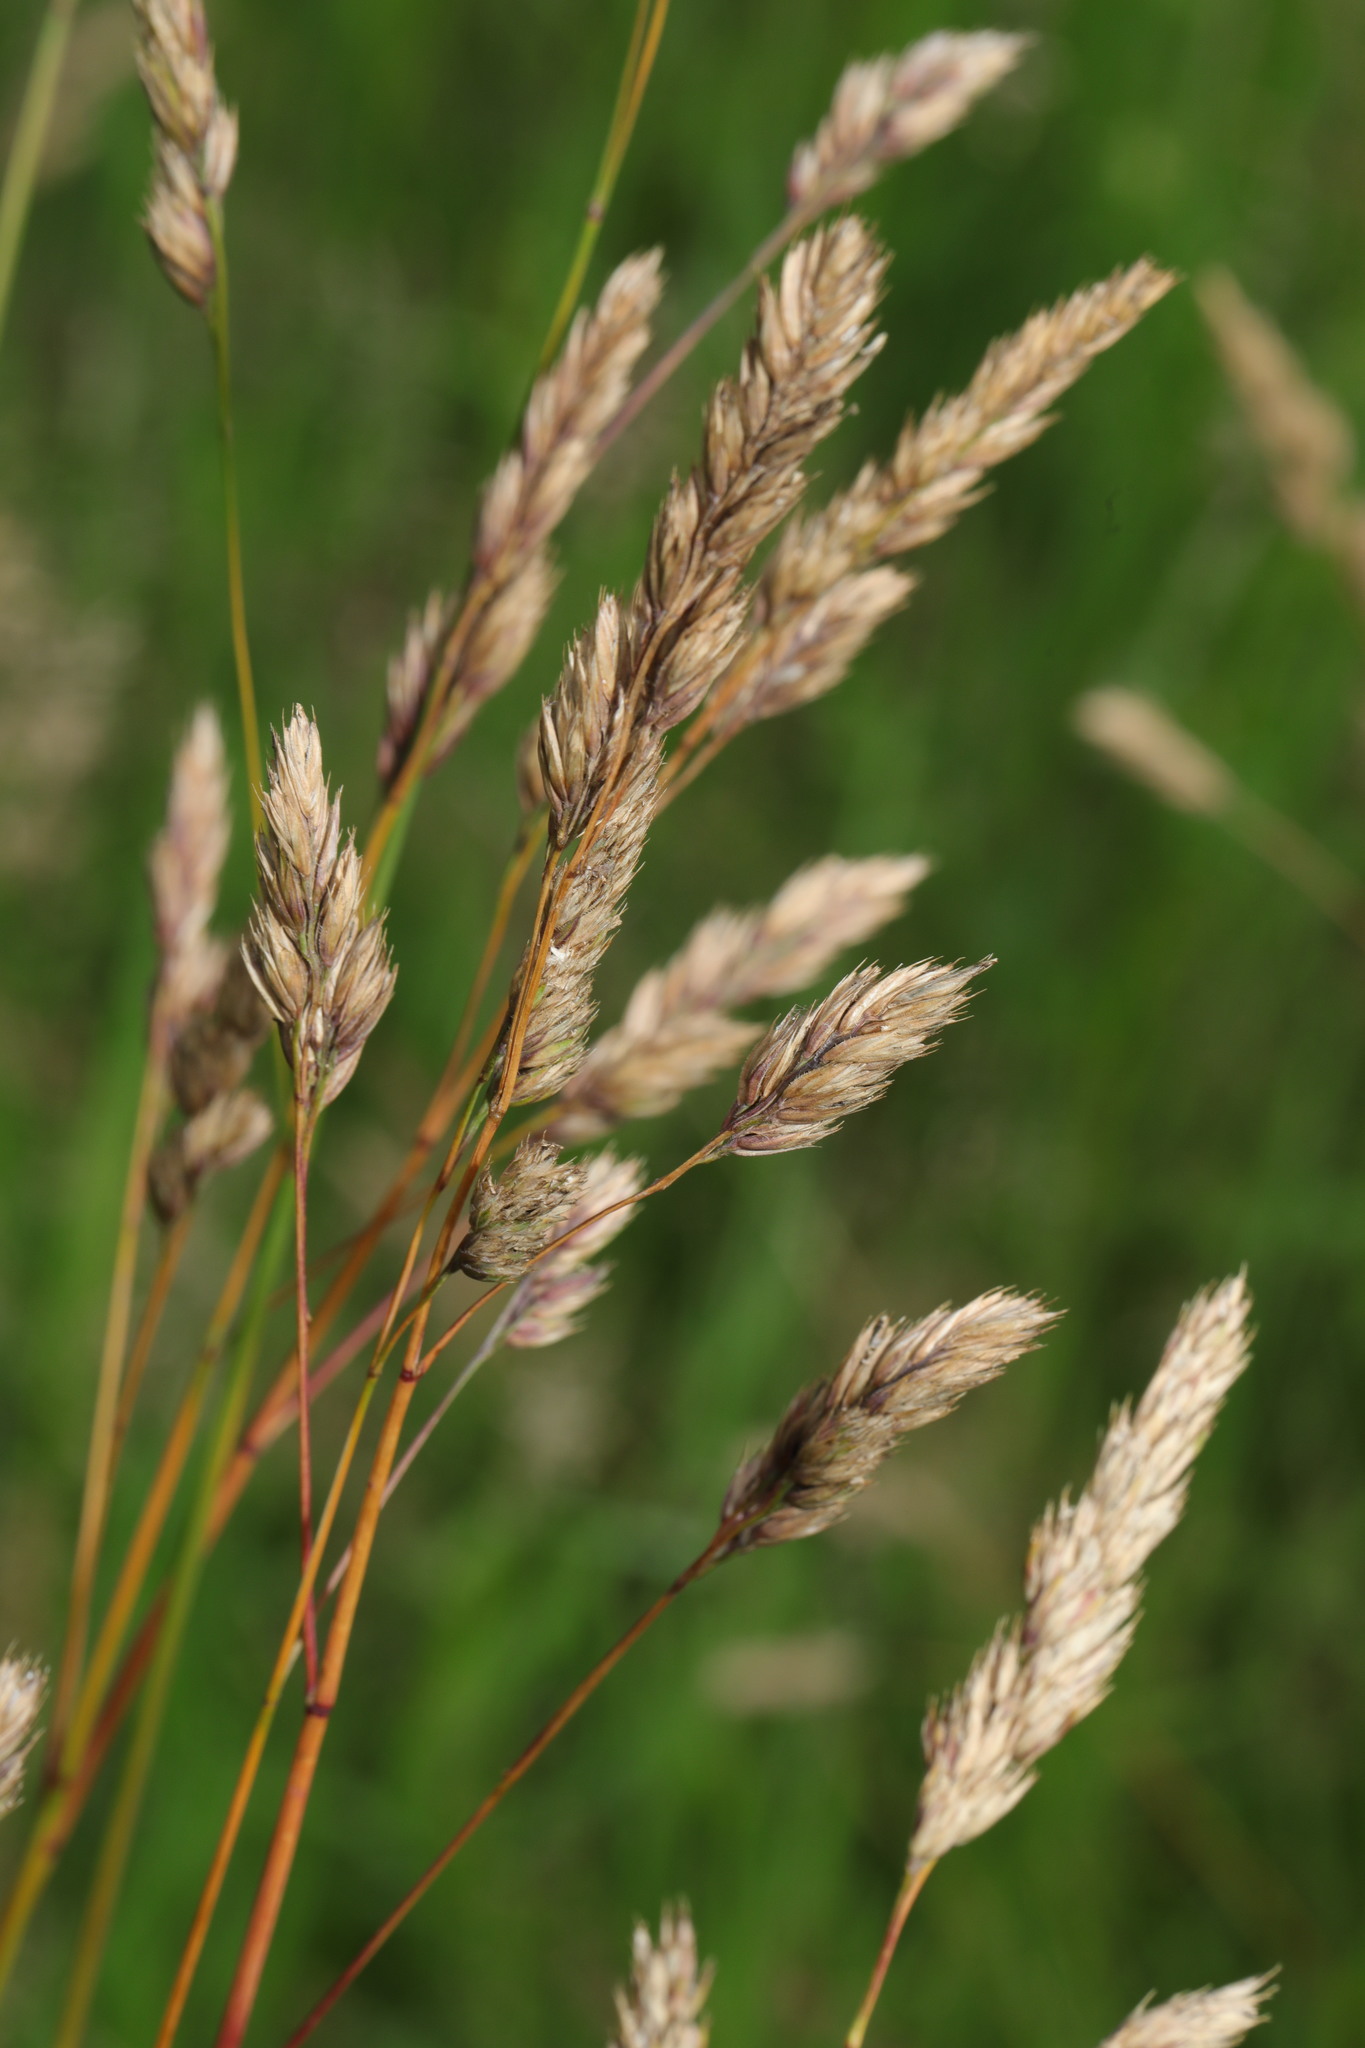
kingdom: Plantae
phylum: Tracheophyta
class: Liliopsida
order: Poales
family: Poaceae
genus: Dactylis
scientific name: Dactylis glomerata
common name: Orchardgrass
